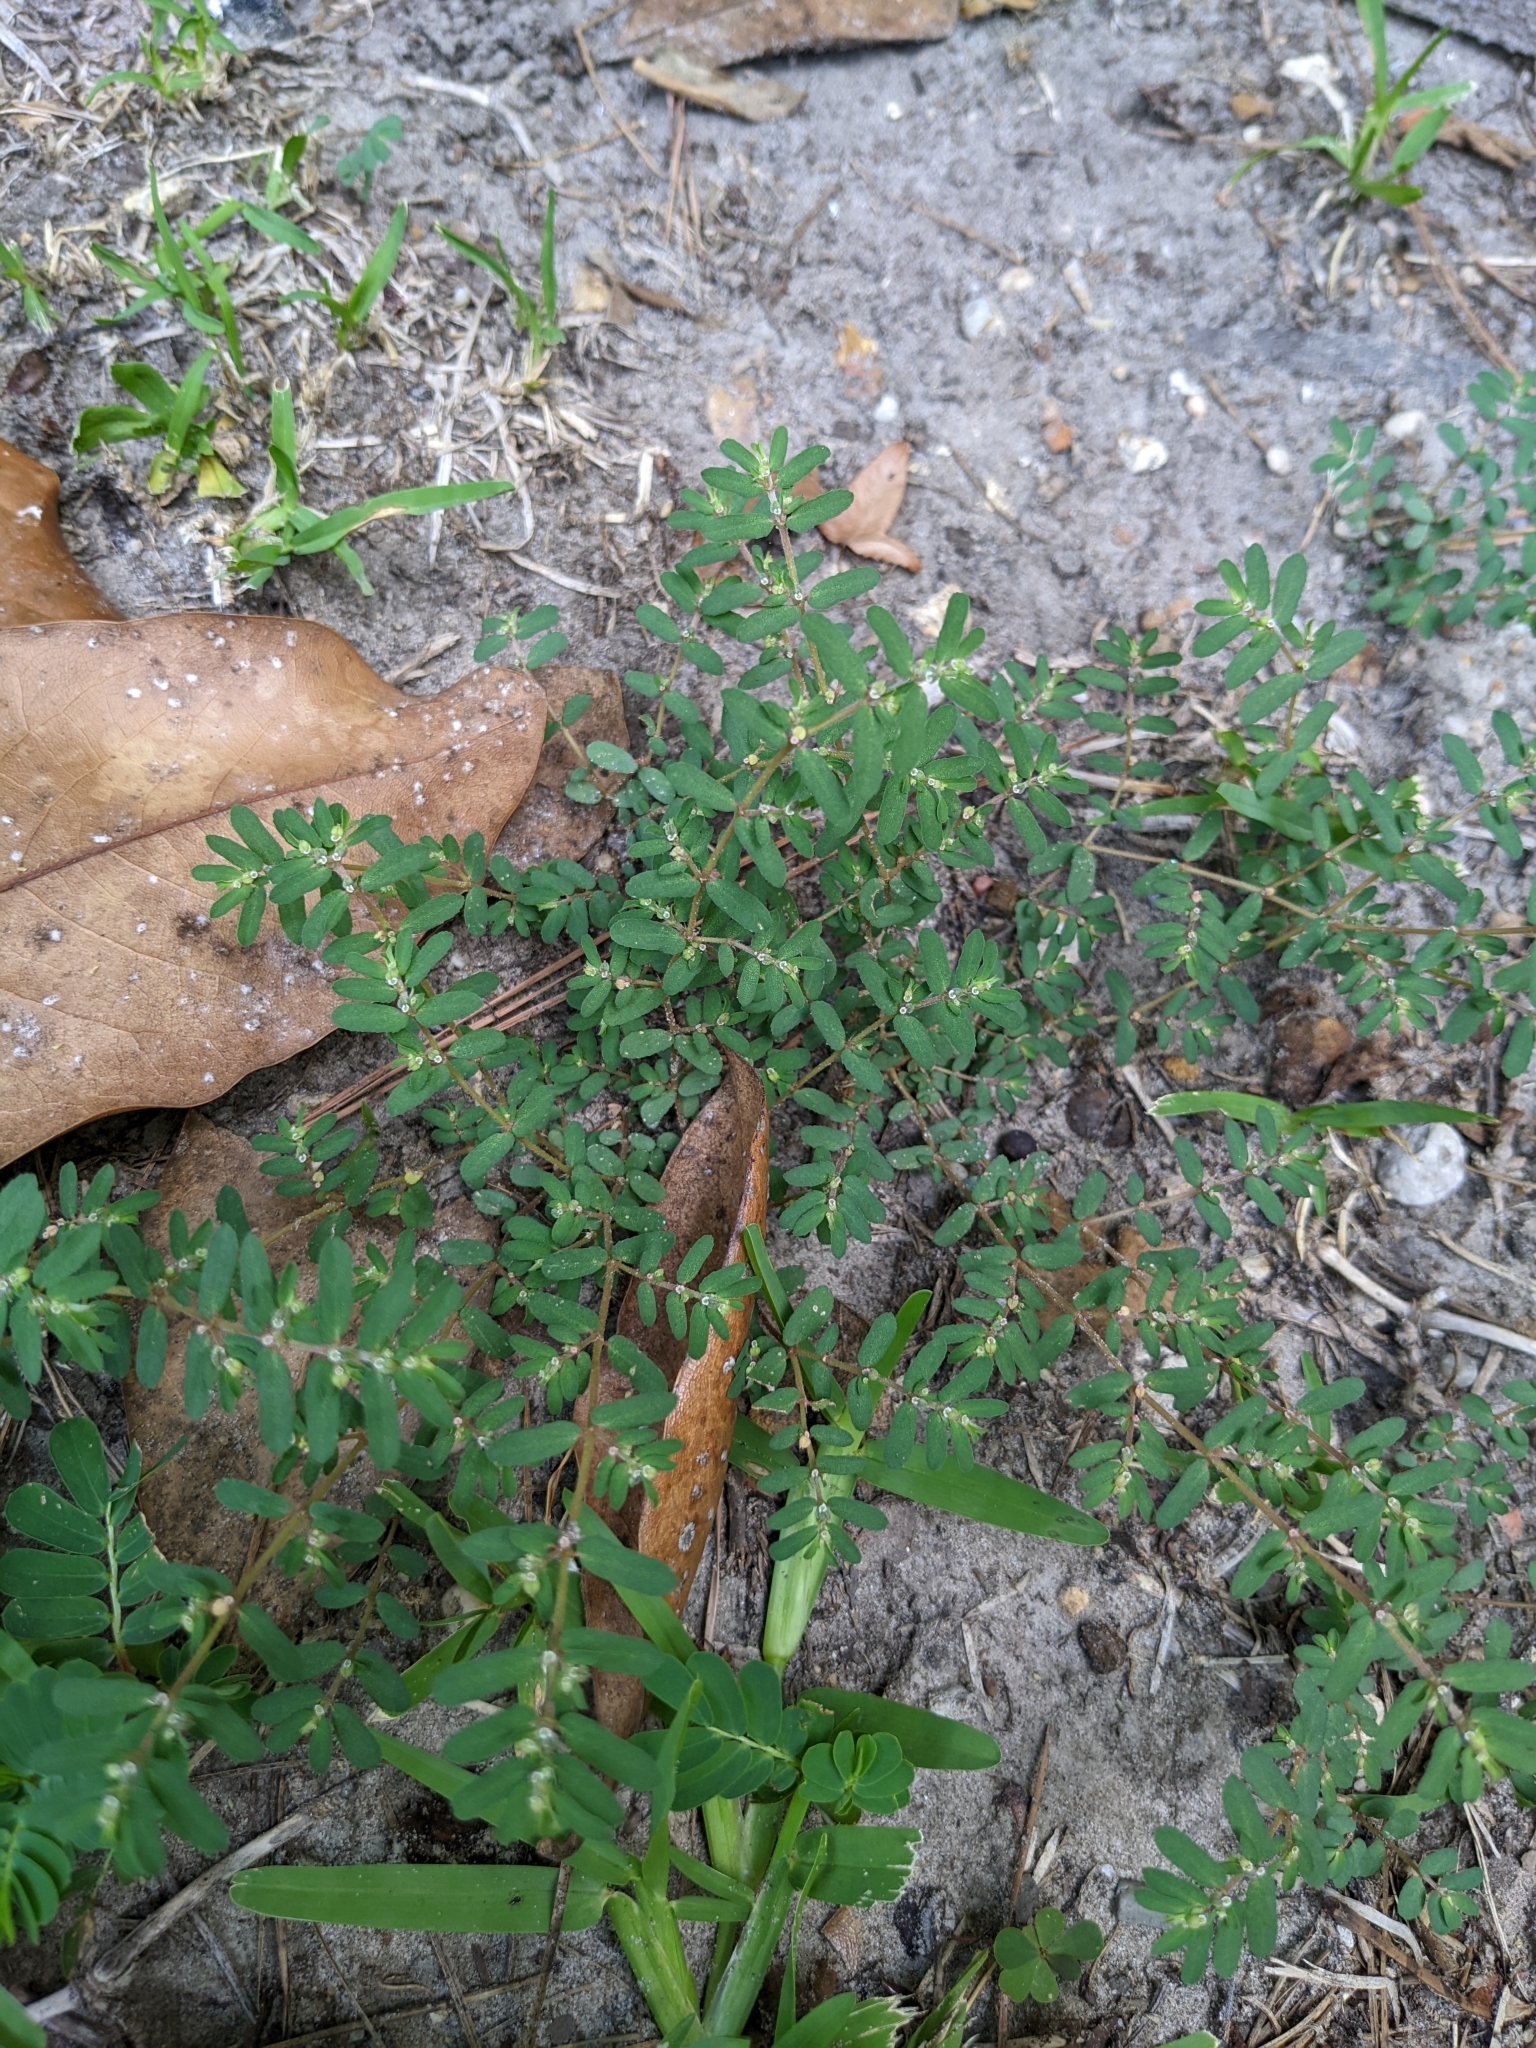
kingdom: Plantae
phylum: Tracheophyta
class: Magnoliopsida
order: Malpighiales
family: Euphorbiaceae
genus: Euphorbia
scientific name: Euphorbia maculata
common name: Spotted spurge
